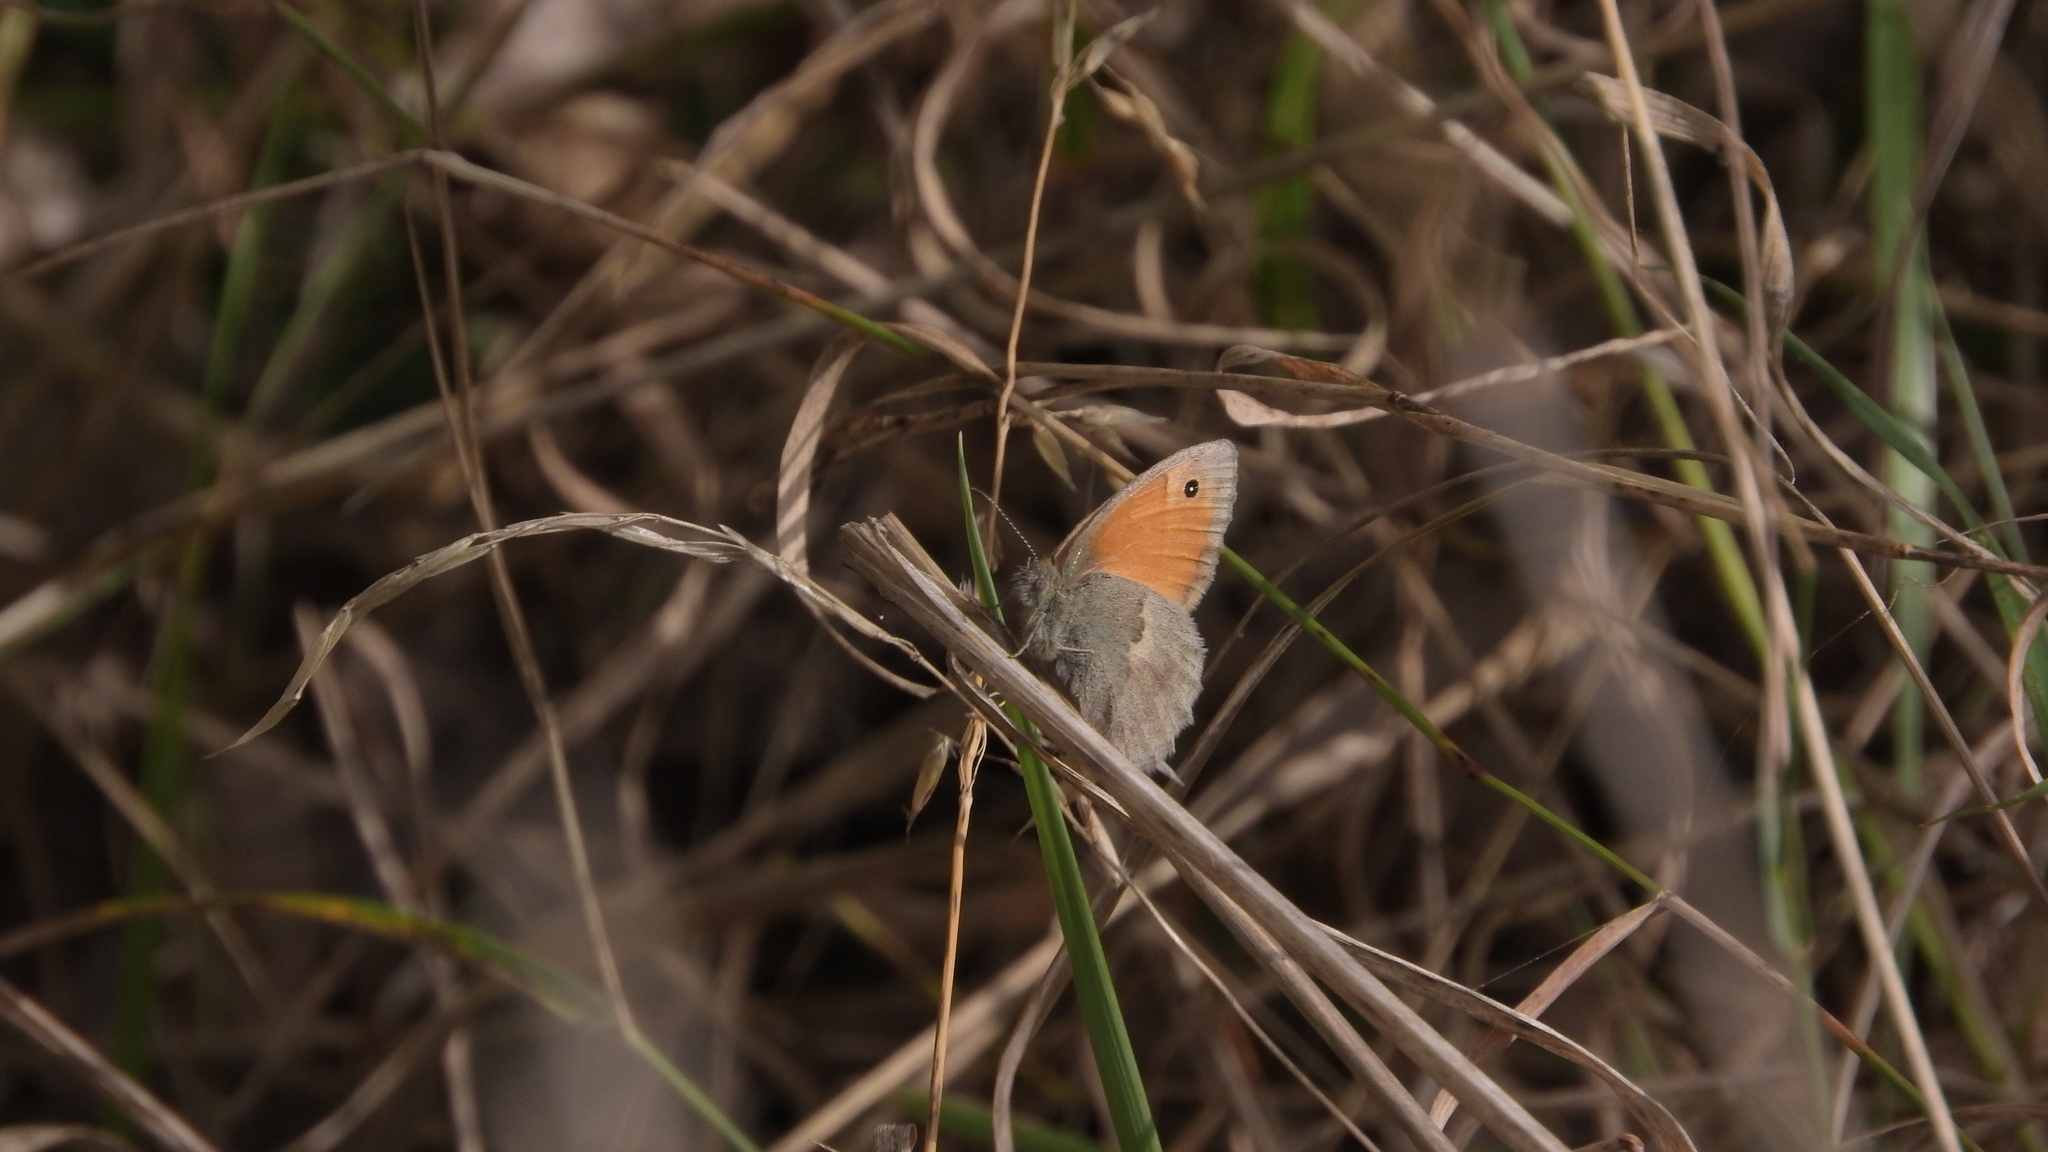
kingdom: Animalia
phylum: Arthropoda
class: Insecta
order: Lepidoptera
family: Nymphalidae
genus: Coenonympha
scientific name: Coenonympha pamphilus
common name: Small heath
